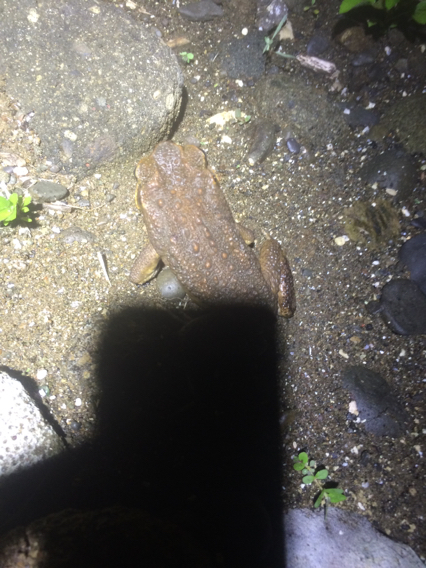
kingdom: Animalia
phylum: Chordata
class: Amphibia
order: Anura
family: Bufonidae
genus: Rhinella
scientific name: Rhinella marina
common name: Cane toad
